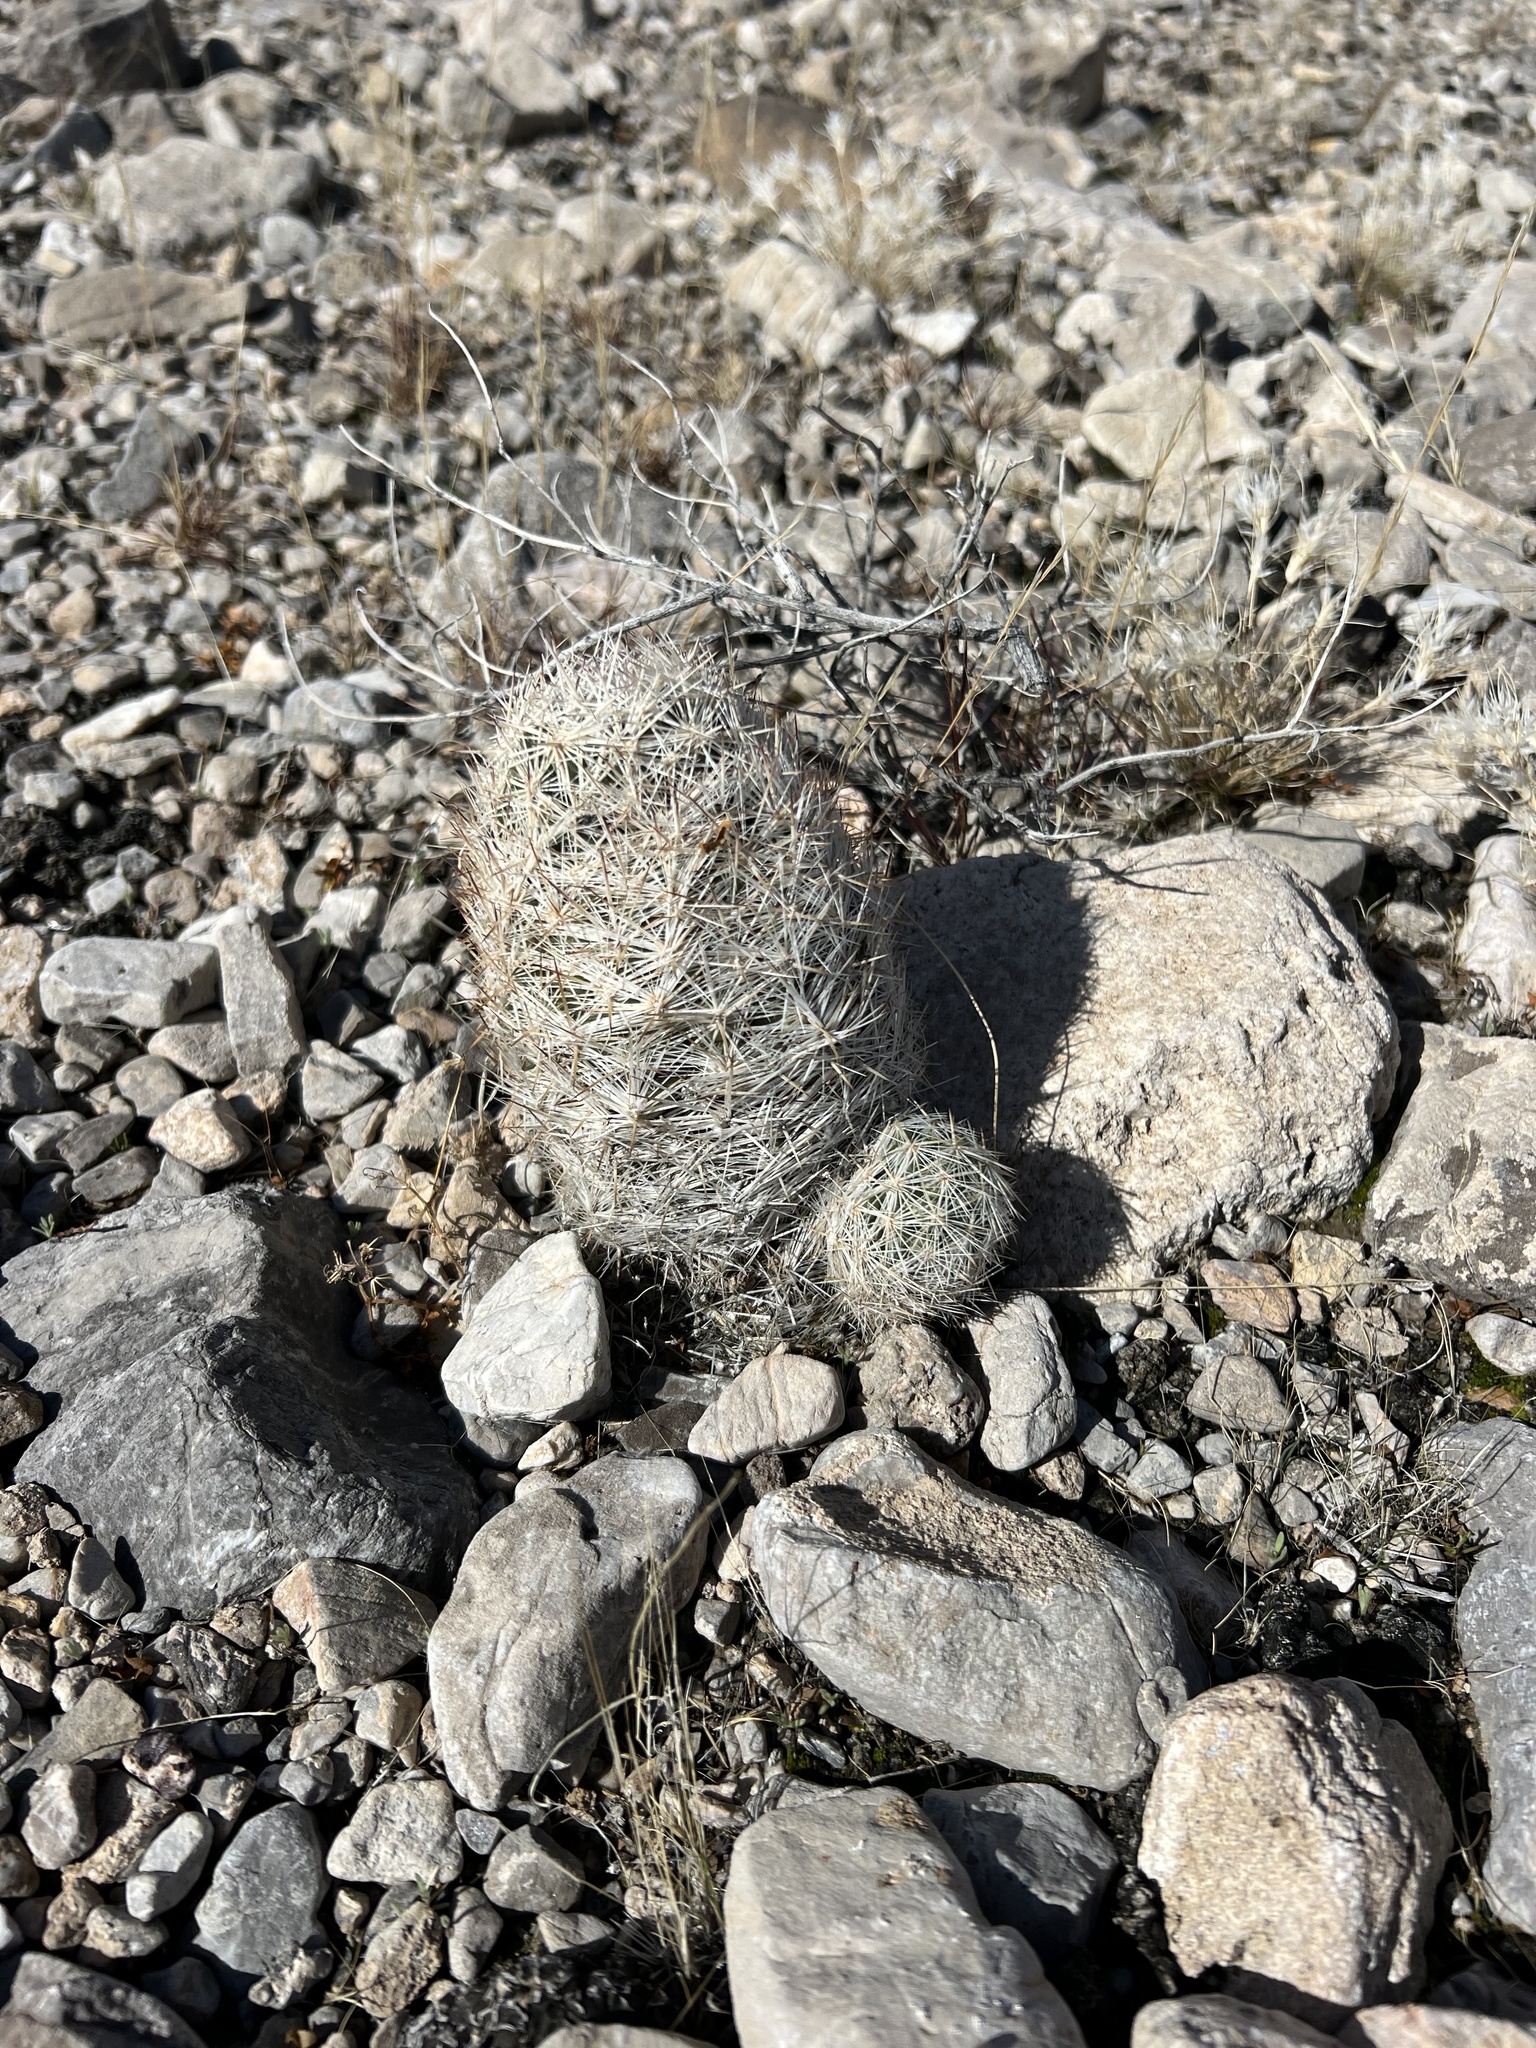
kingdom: Plantae
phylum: Tracheophyta
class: Magnoliopsida
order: Caryophyllales
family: Cactaceae
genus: Pelecyphora
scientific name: Pelecyphora dasyacantha
